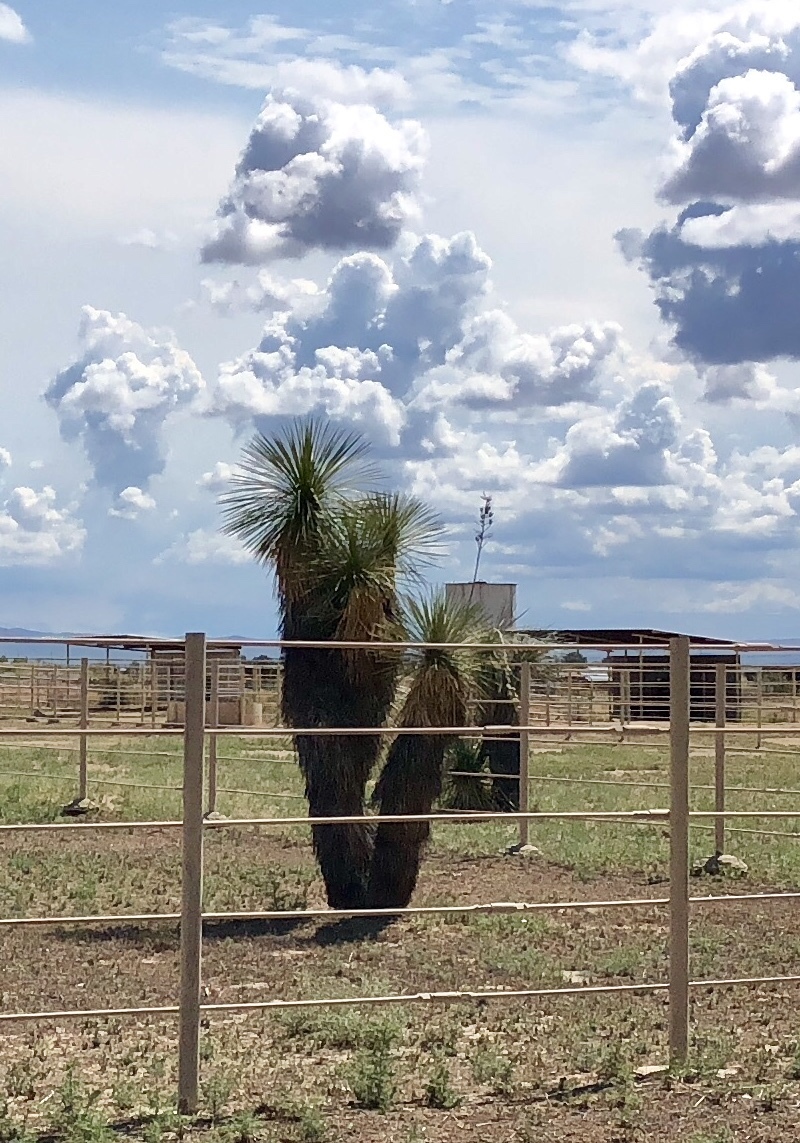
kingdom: Plantae
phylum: Tracheophyta
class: Liliopsida
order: Asparagales
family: Asparagaceae
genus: Yucca
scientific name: Yucca elata
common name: Palmella
